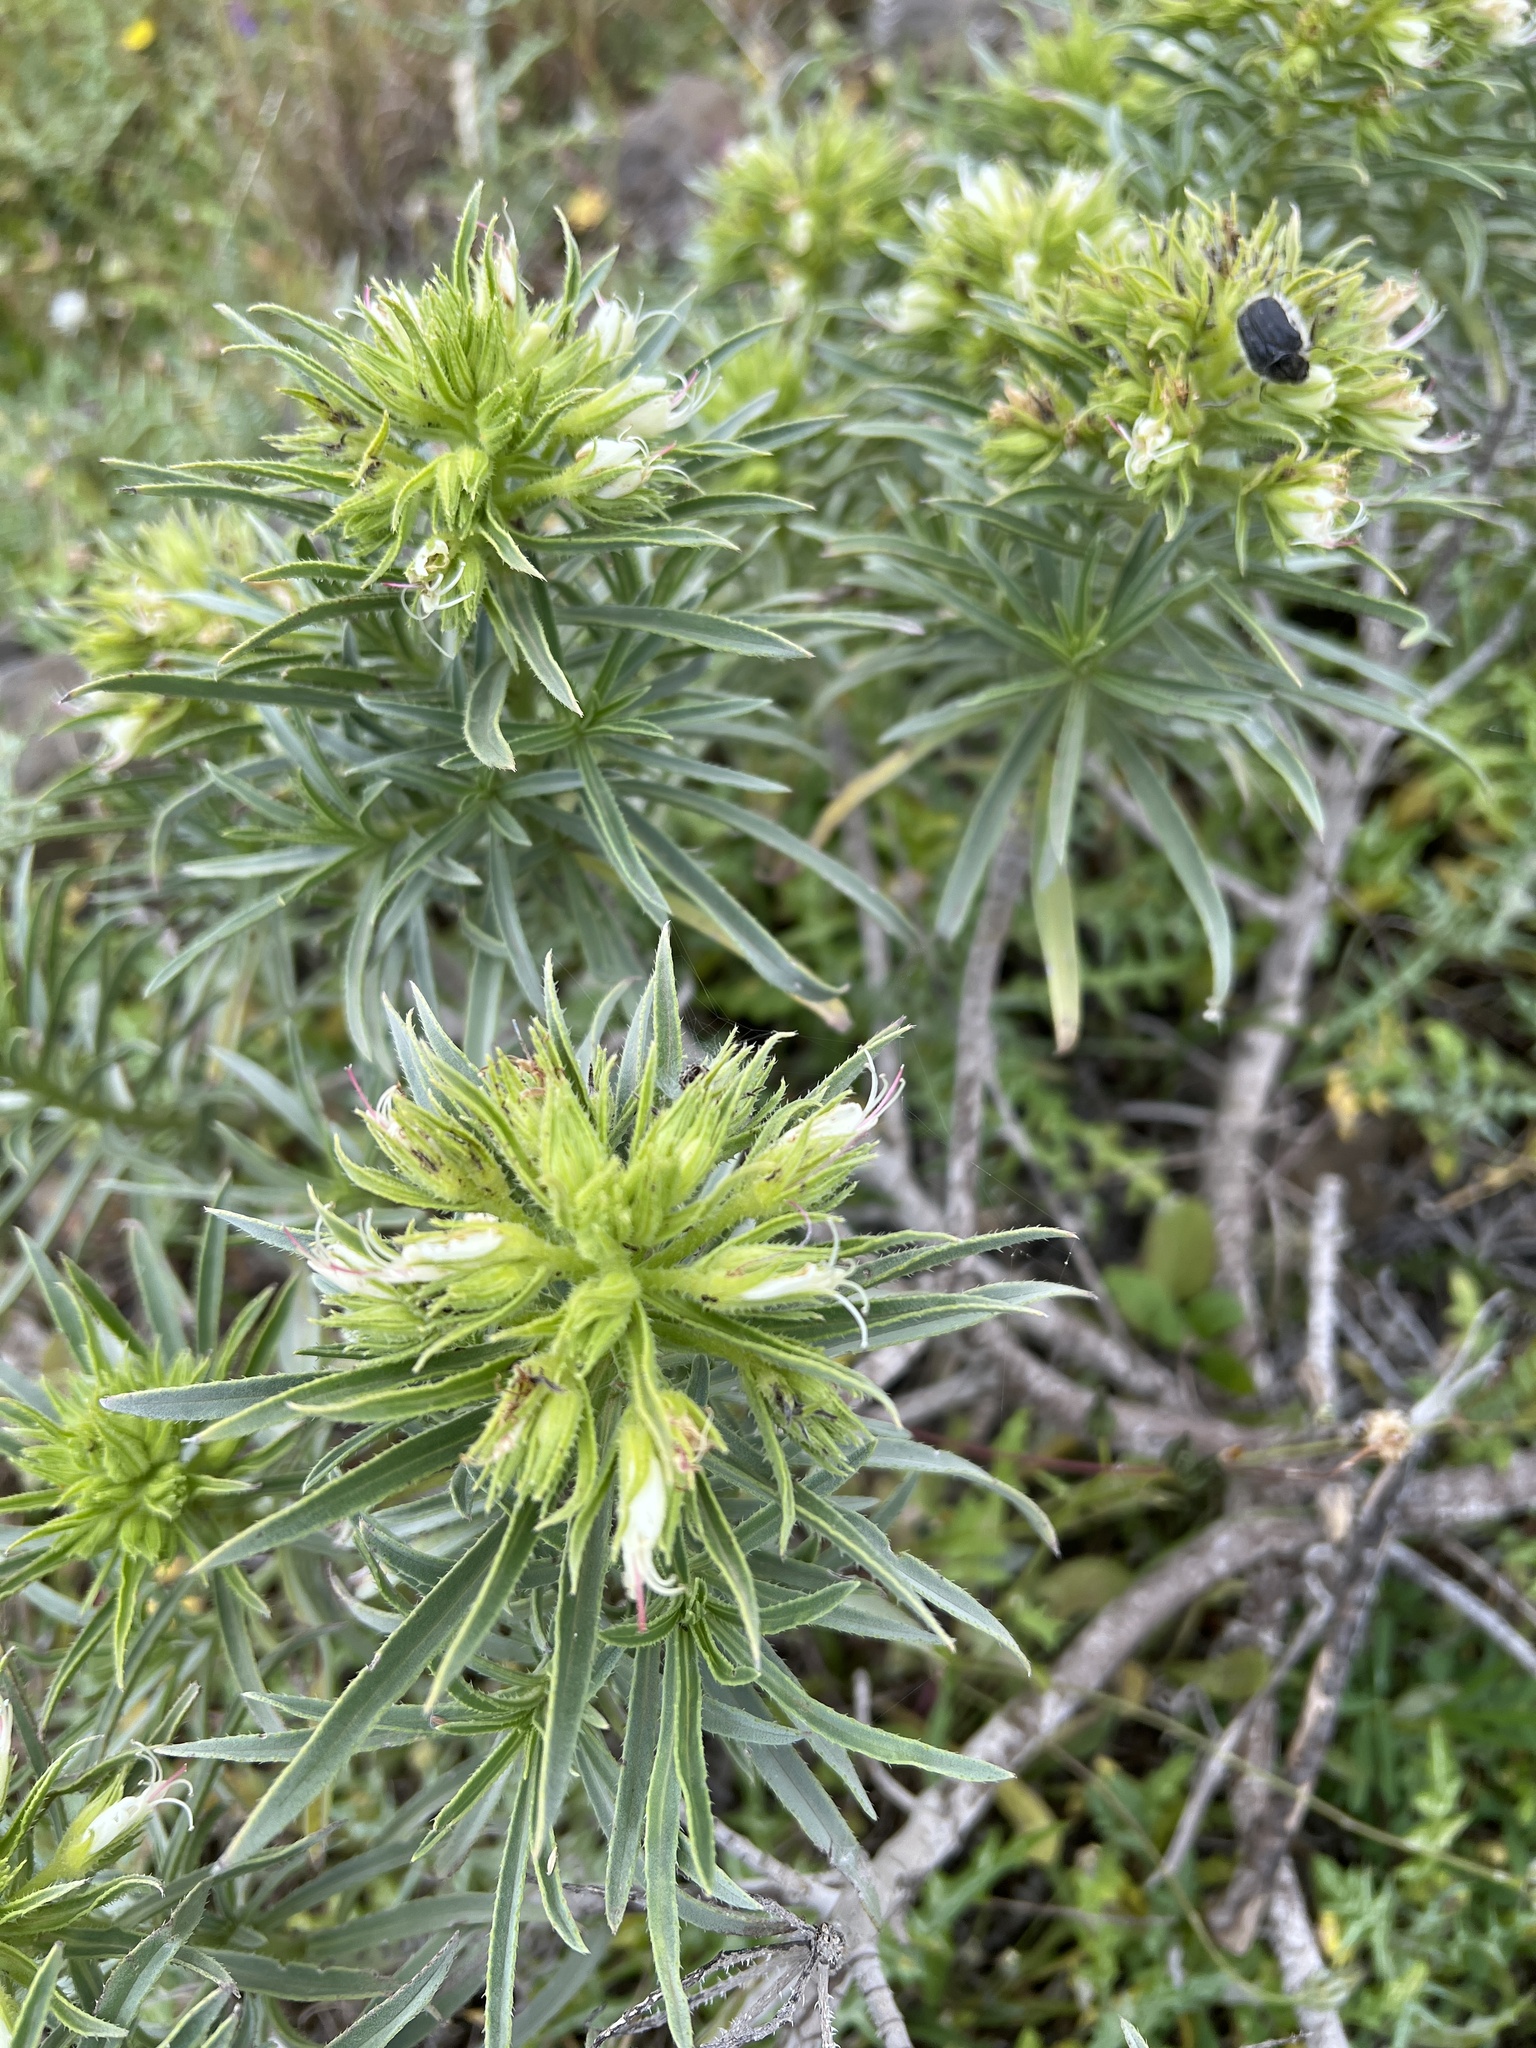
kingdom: Plantae
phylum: Tracheophyta
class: Magnoliopsida
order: Boraginales
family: Boraginaceae
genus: Echium
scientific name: Echium aculeatum
